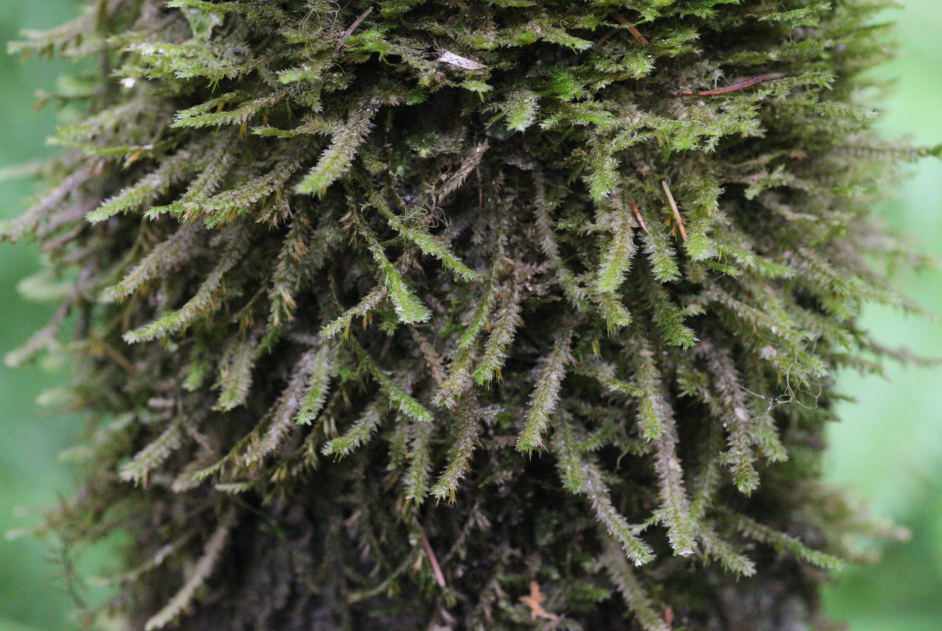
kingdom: Plantae
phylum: Bryophyta
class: Bryopsida
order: Hypnales
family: Neckeraceae
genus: Neckera
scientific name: Neckera pennata
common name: Feathery neckera
